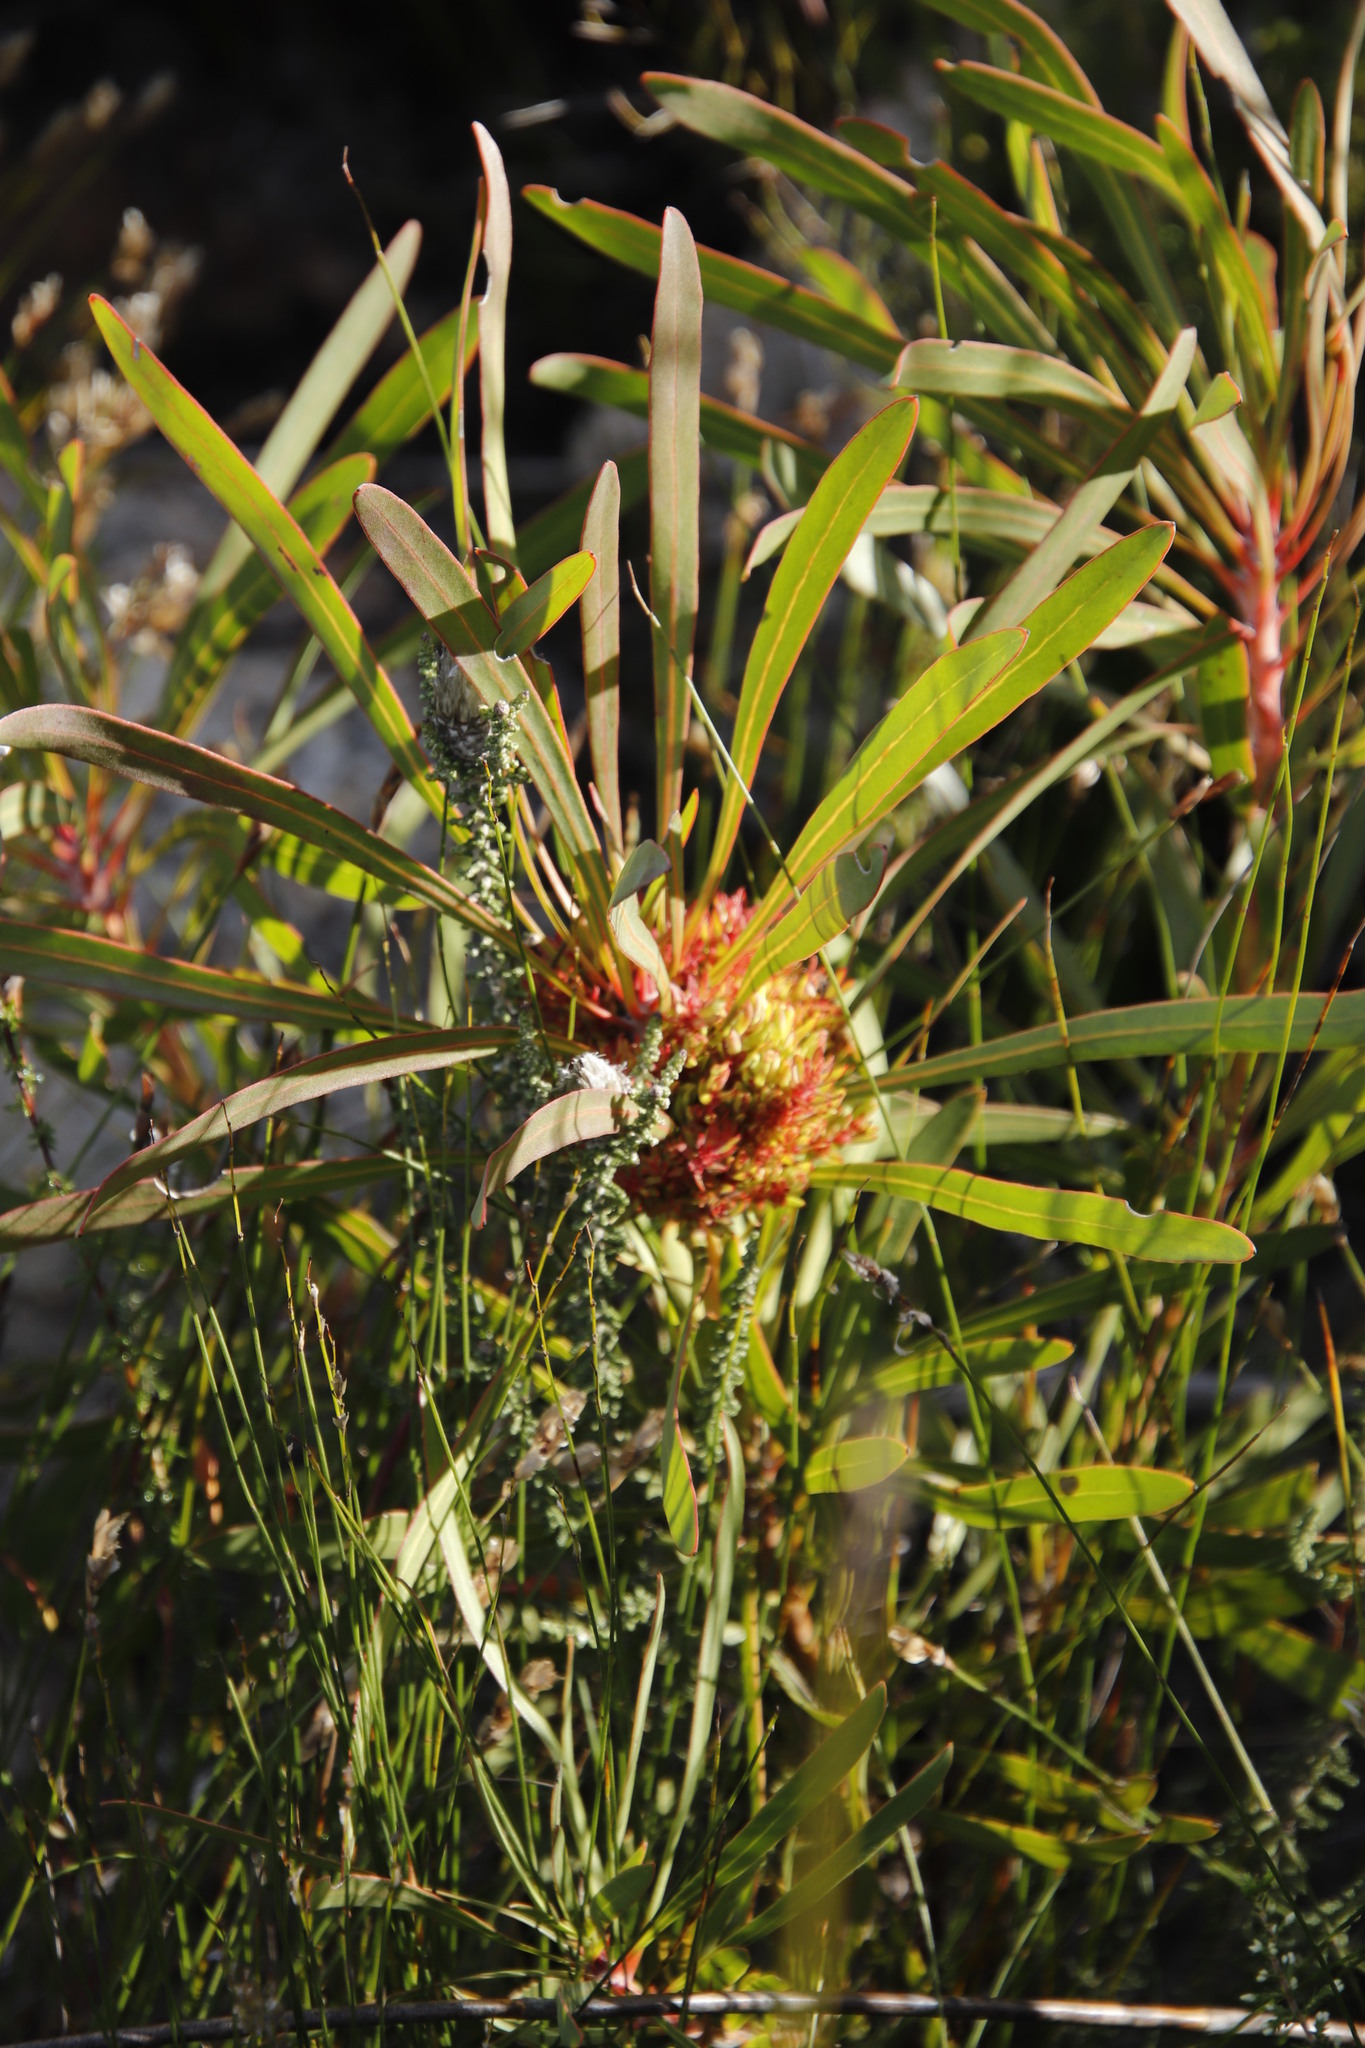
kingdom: Plantae
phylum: Tracheophyta
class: Magnoliopsida
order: Proteales
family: Proteaceae
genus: Protea
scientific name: Protea longifolia
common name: Long-leaf sugarbush
